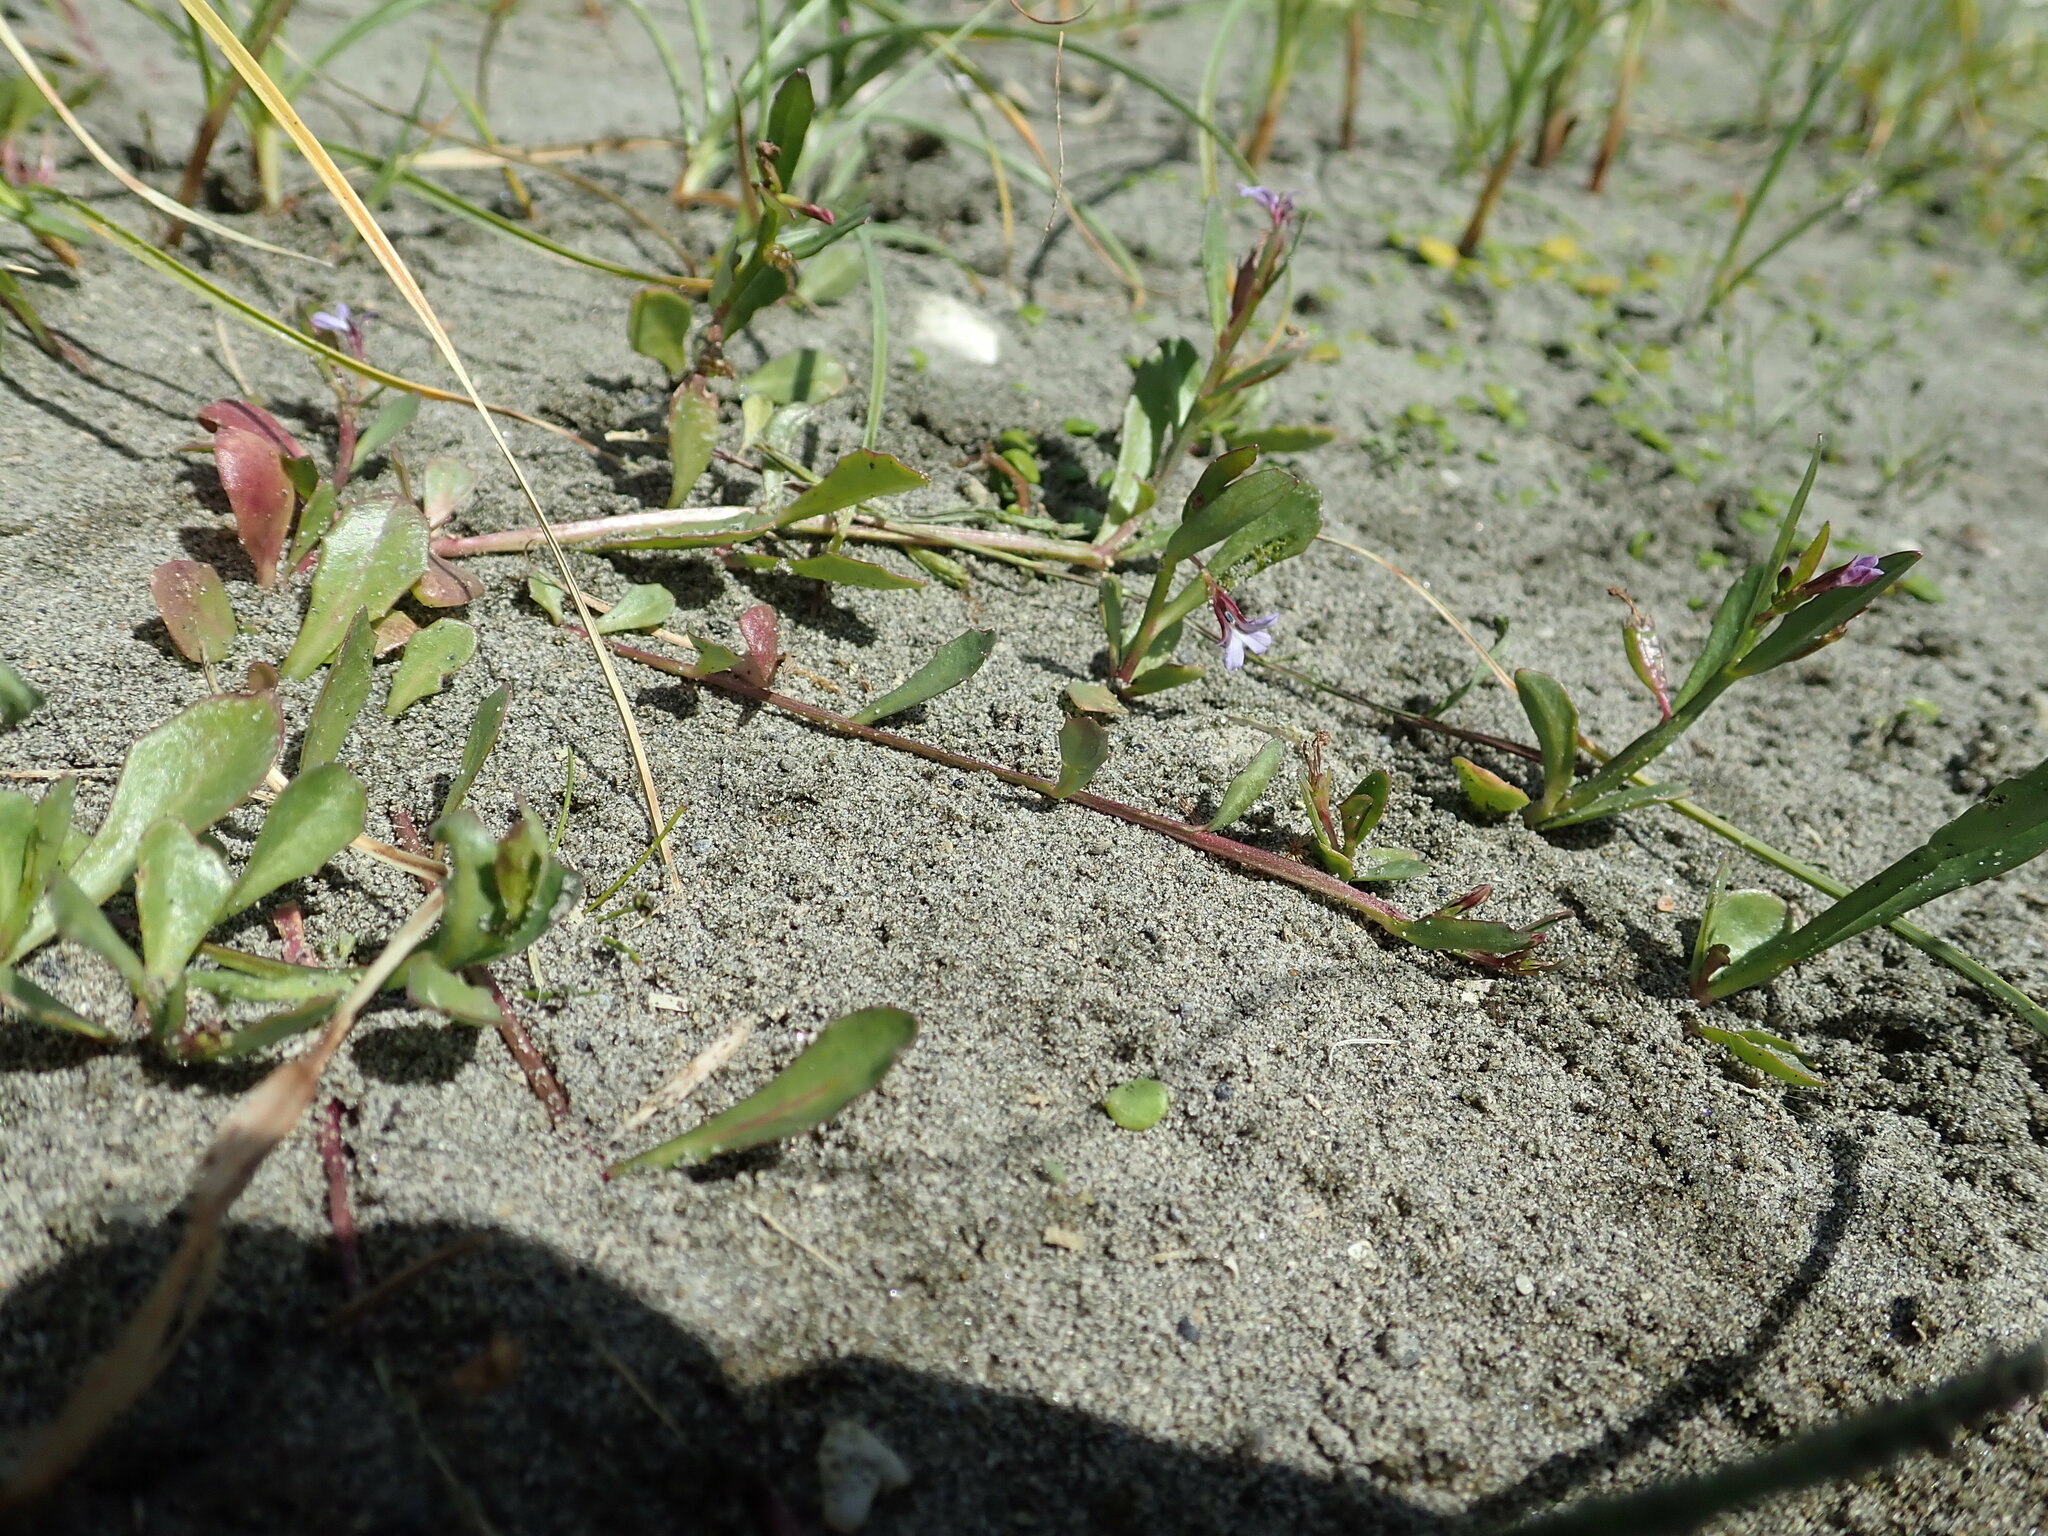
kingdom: Plantae
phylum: Tracheophyta
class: Magnoliopsida
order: Asterales
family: Campanulaceae
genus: Lobelia
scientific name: Lobelia anceps
